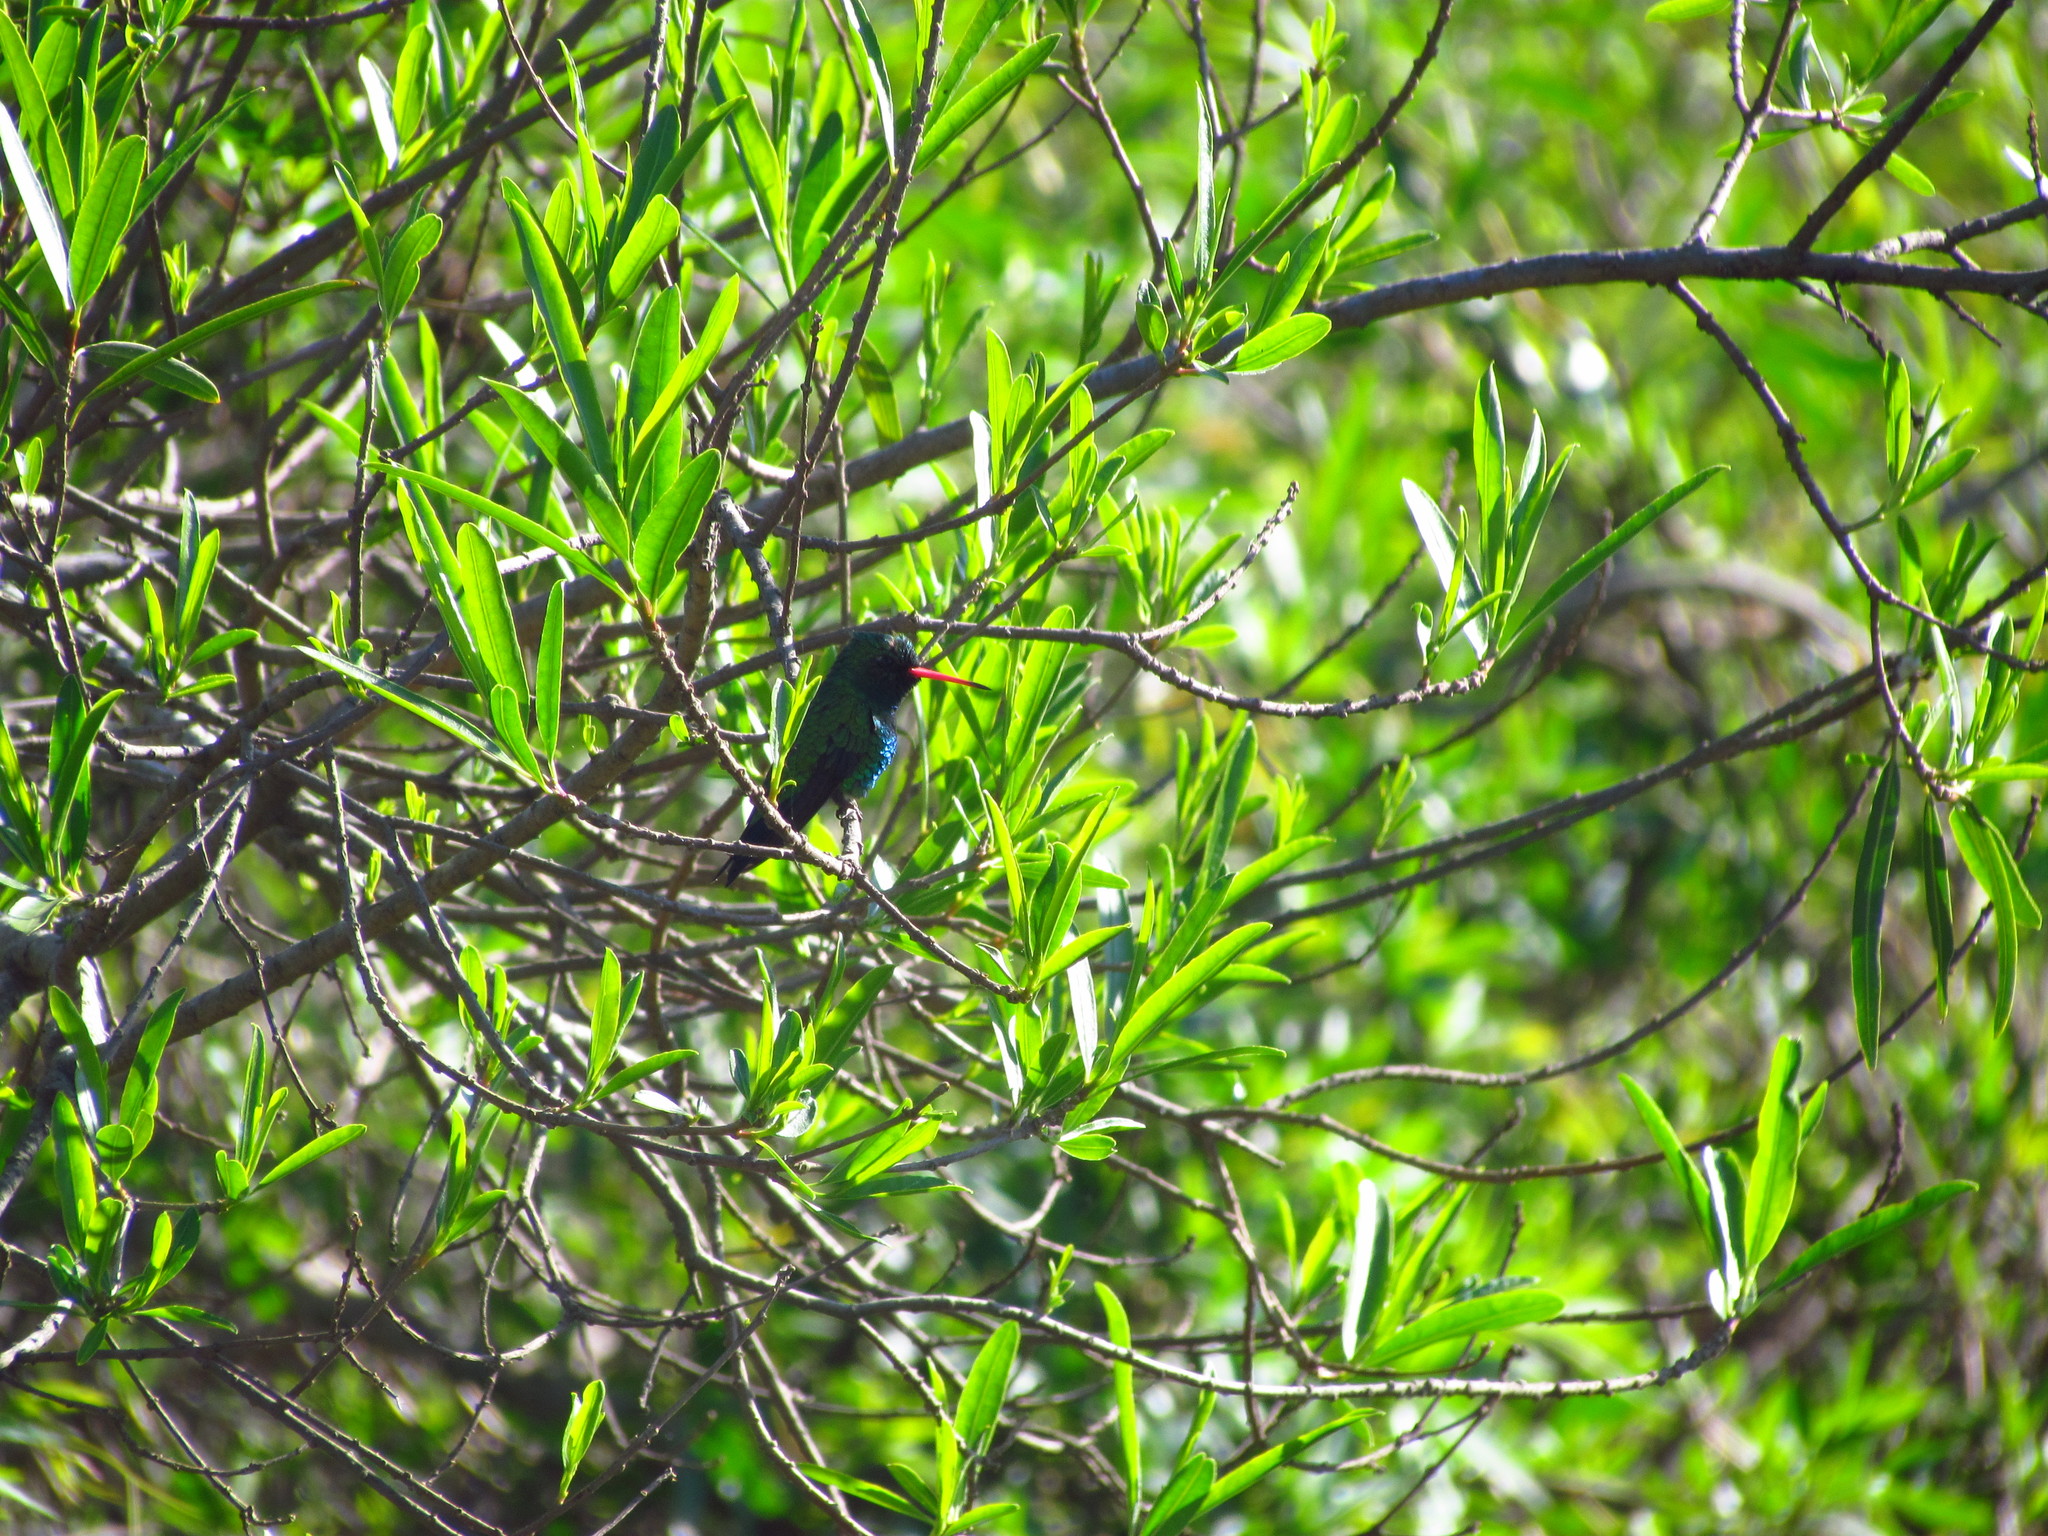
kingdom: Animalia
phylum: Chordata
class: Aves
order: Apodiformes
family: Trochilidae
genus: Chlorostilbon
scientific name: Chlorostilbon lucidus
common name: Glittering-bellied emerald
